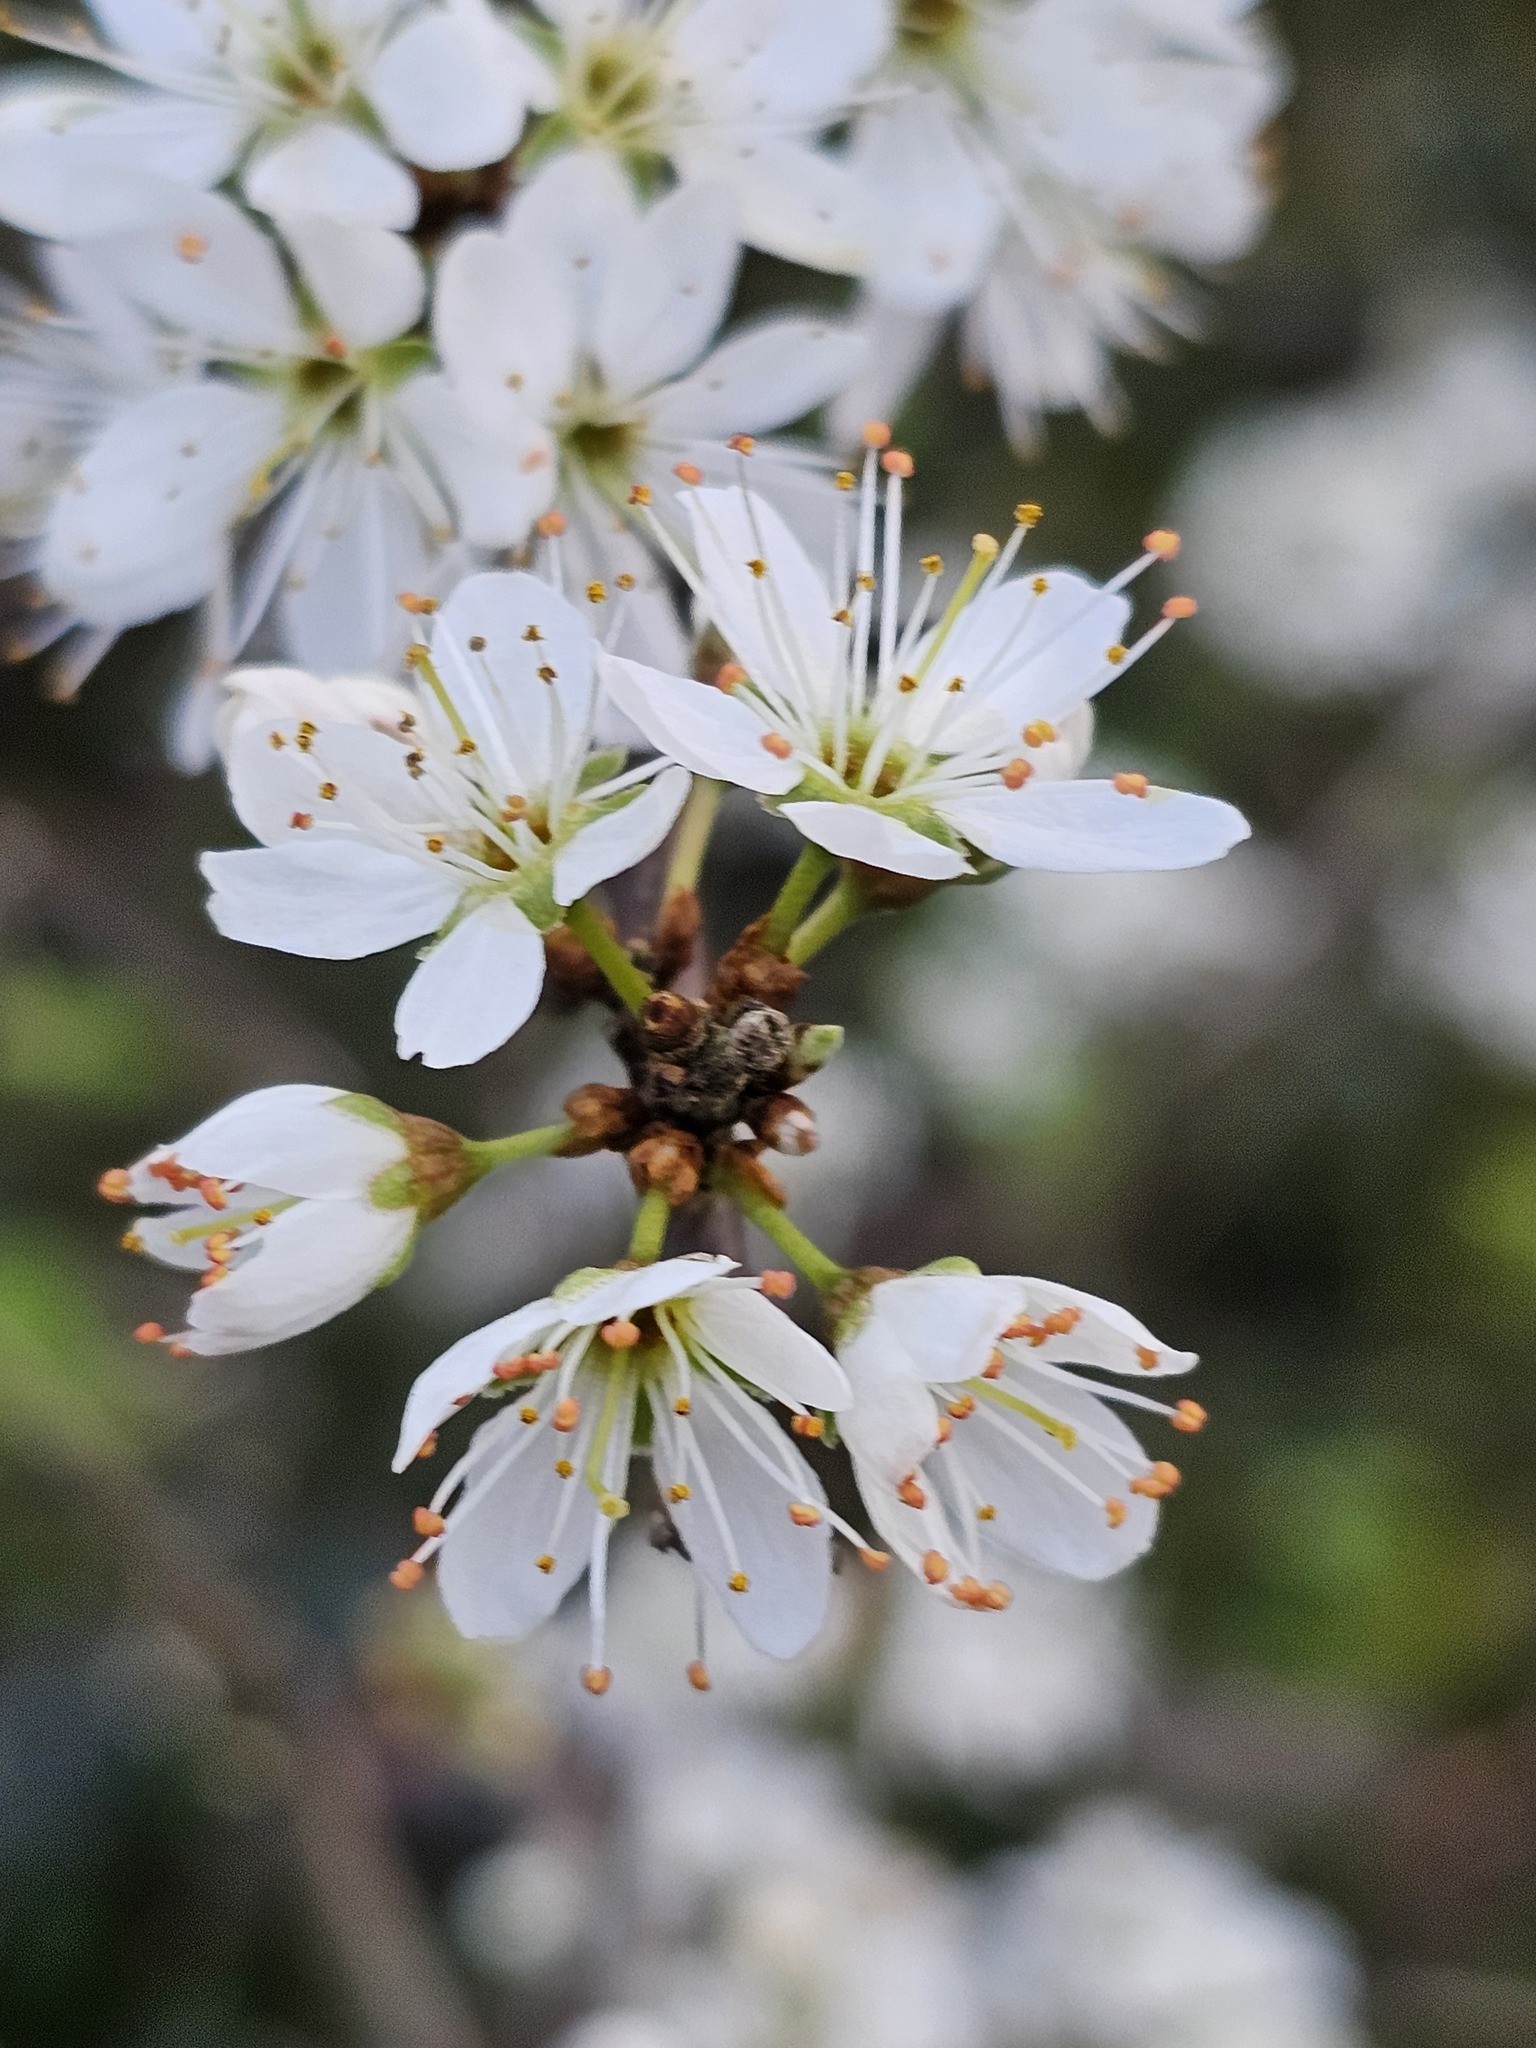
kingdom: Plantae
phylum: Tracheophyta
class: Magnoliopsida
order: Rosales
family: Rosaceae
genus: Prunus
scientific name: Prunus spinosa
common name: Blackthorn
